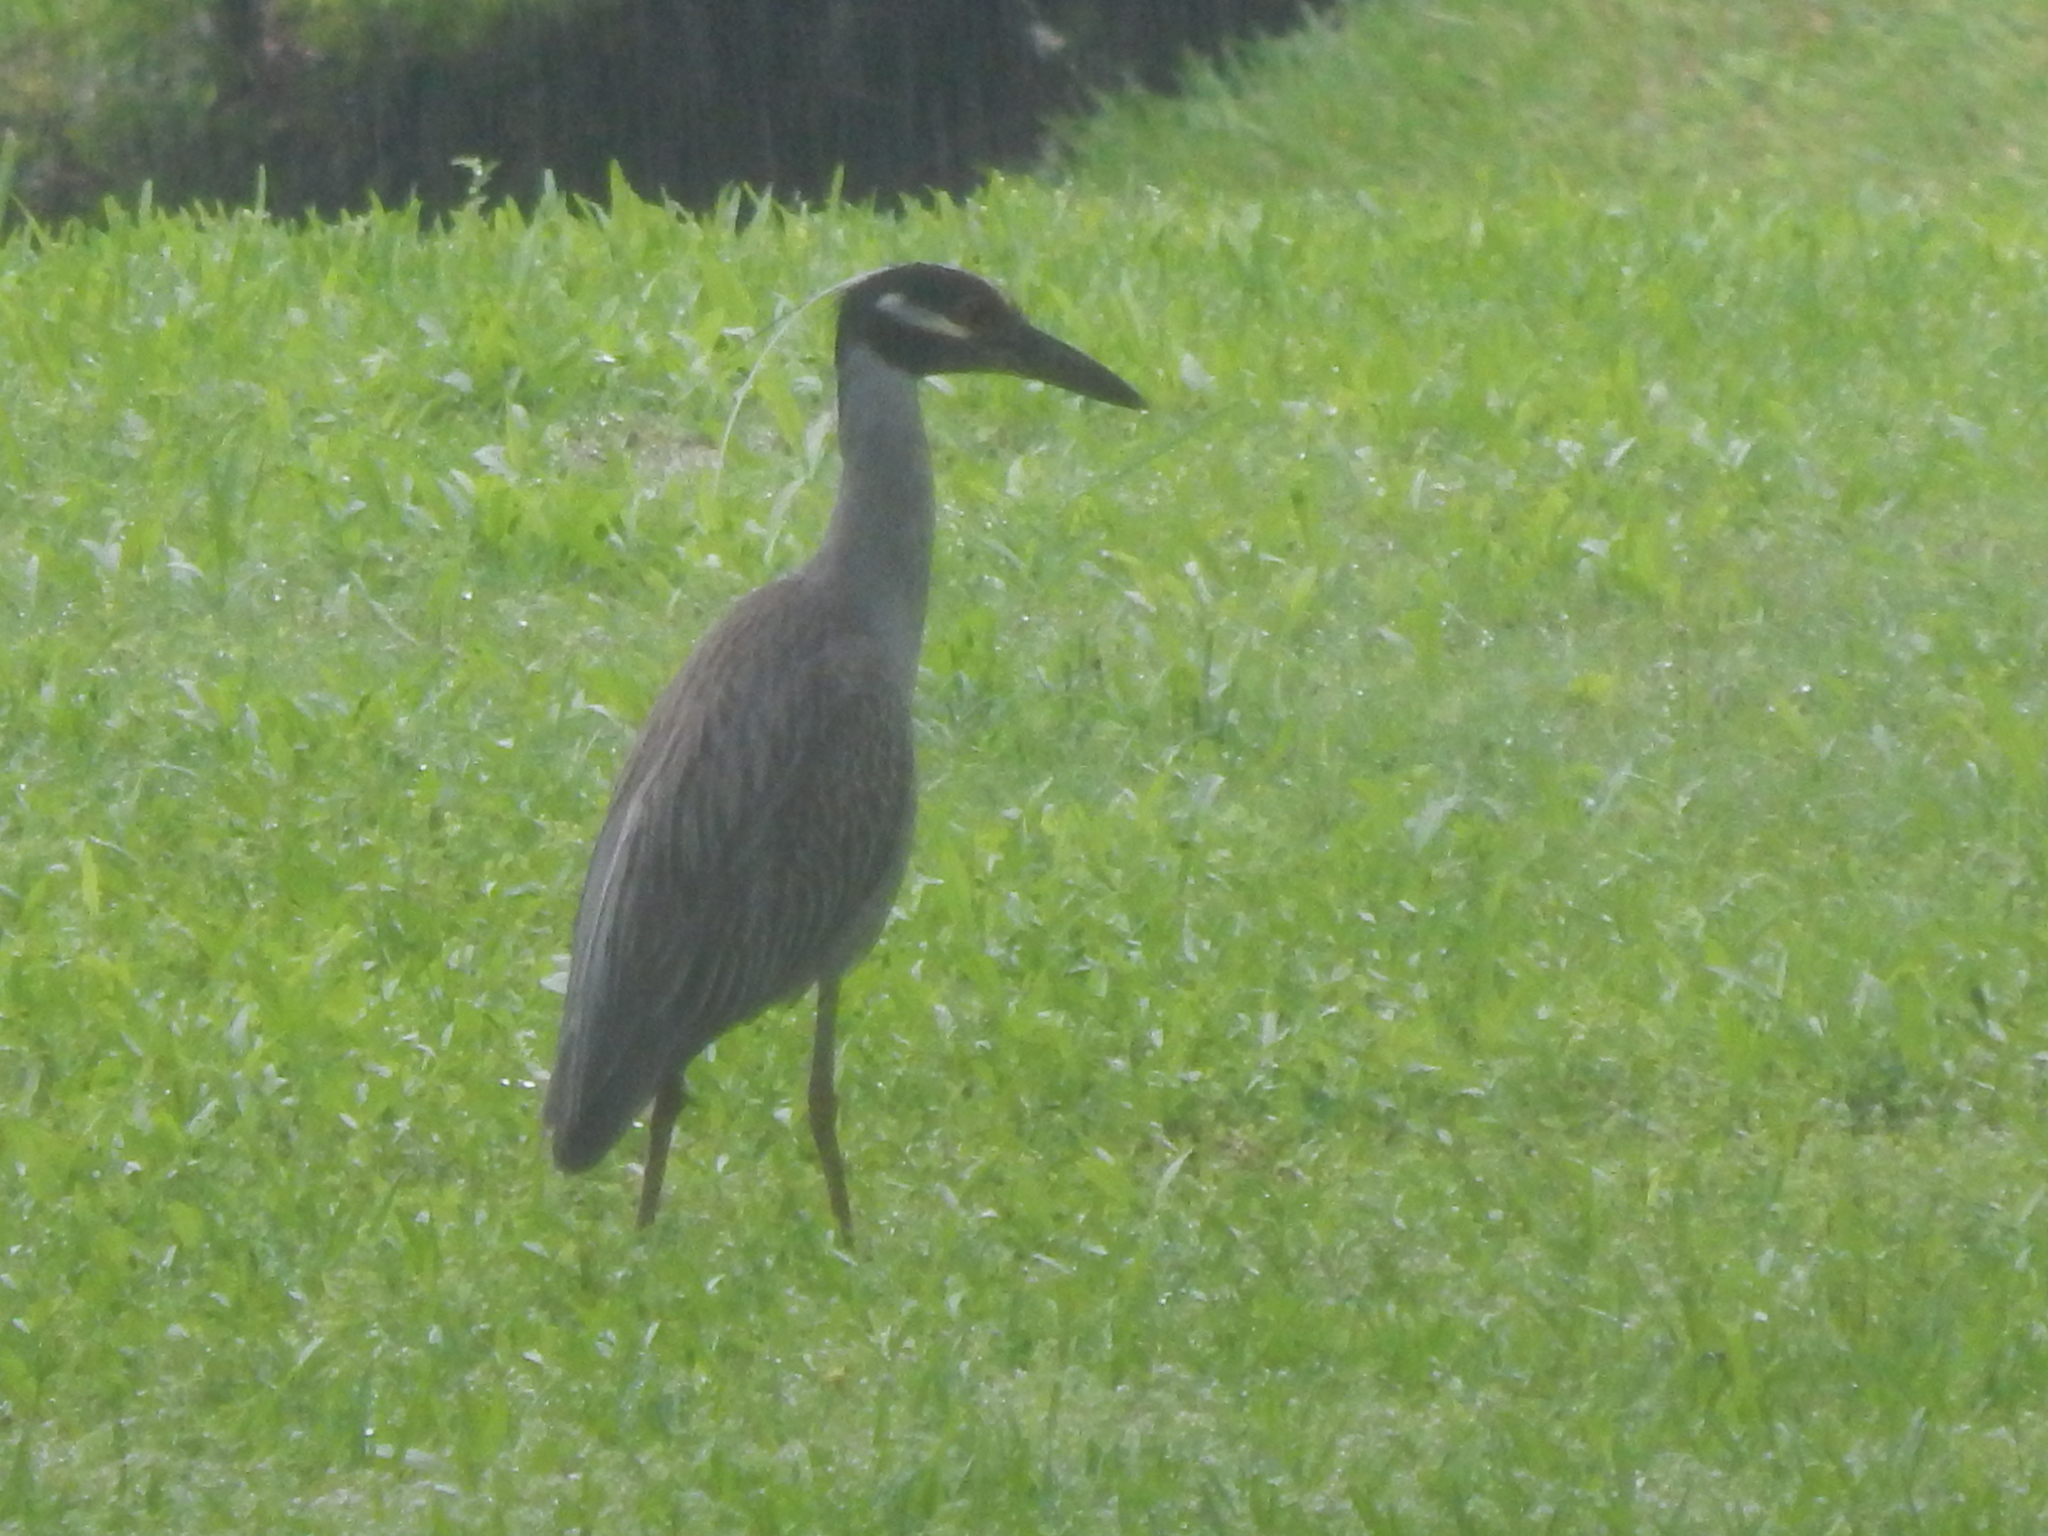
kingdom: Animalia
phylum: Chordata
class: Aves
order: Pelecaniformes
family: Ardeidae
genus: Nyctanassa
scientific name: Nyctanassa violacea
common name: Yellow-crowned night heron
